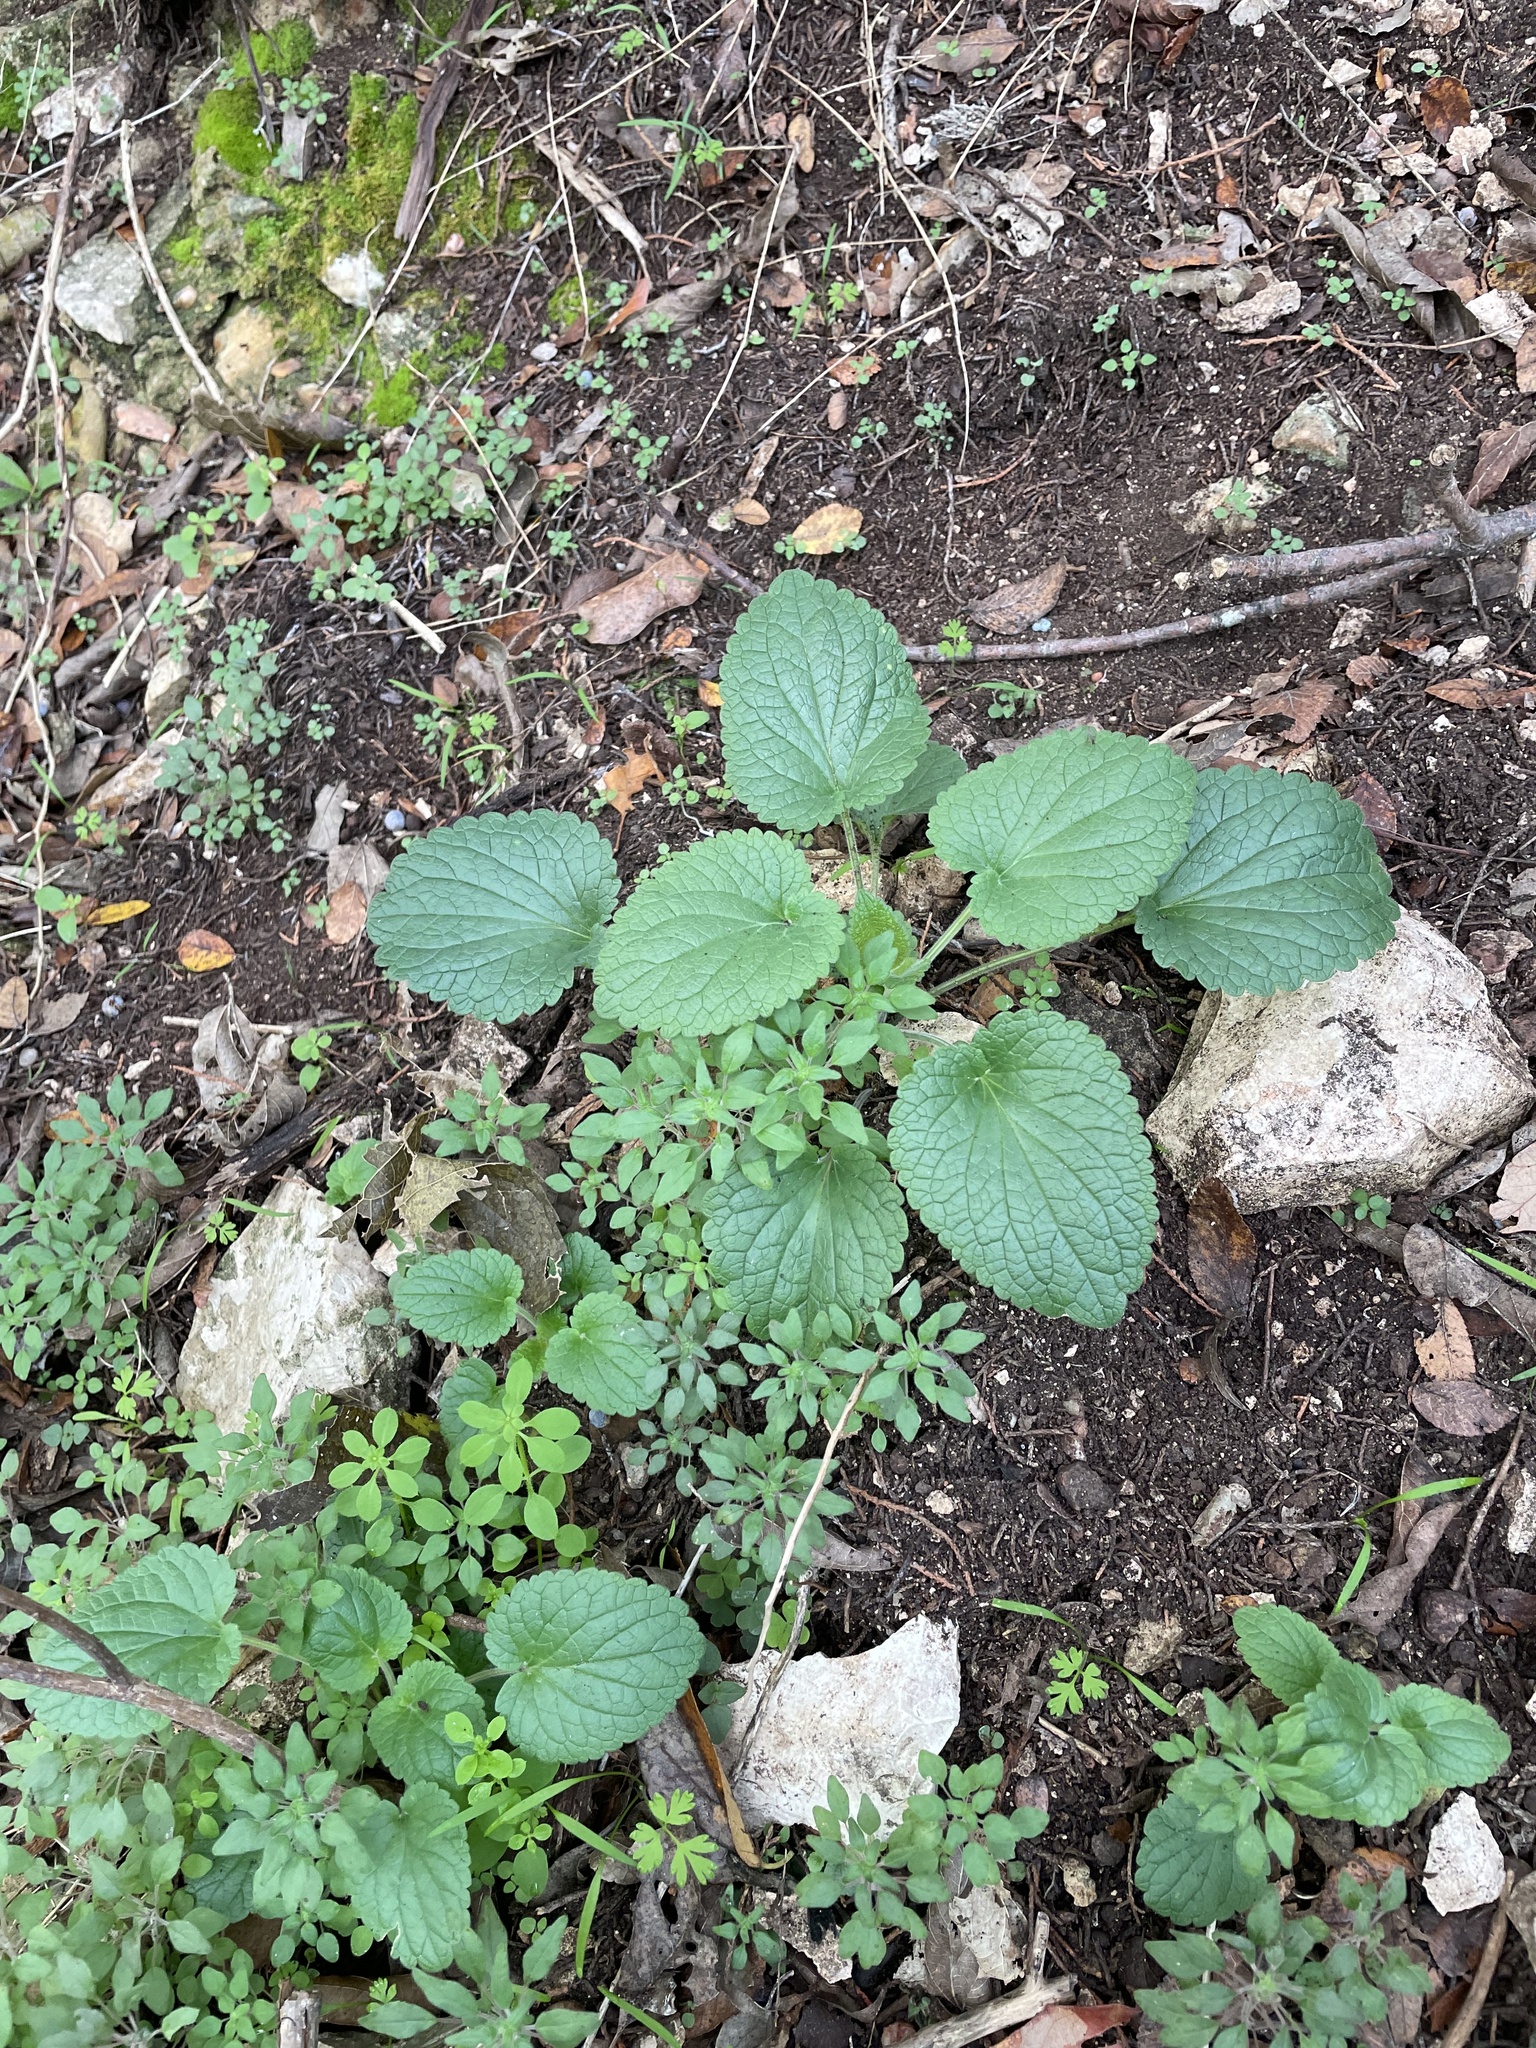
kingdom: Plantae
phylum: Tracheophyta
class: Magnoliopsida
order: Lamiales
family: Lamiaceae
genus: Scutellaria
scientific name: Scutellaria ovata
